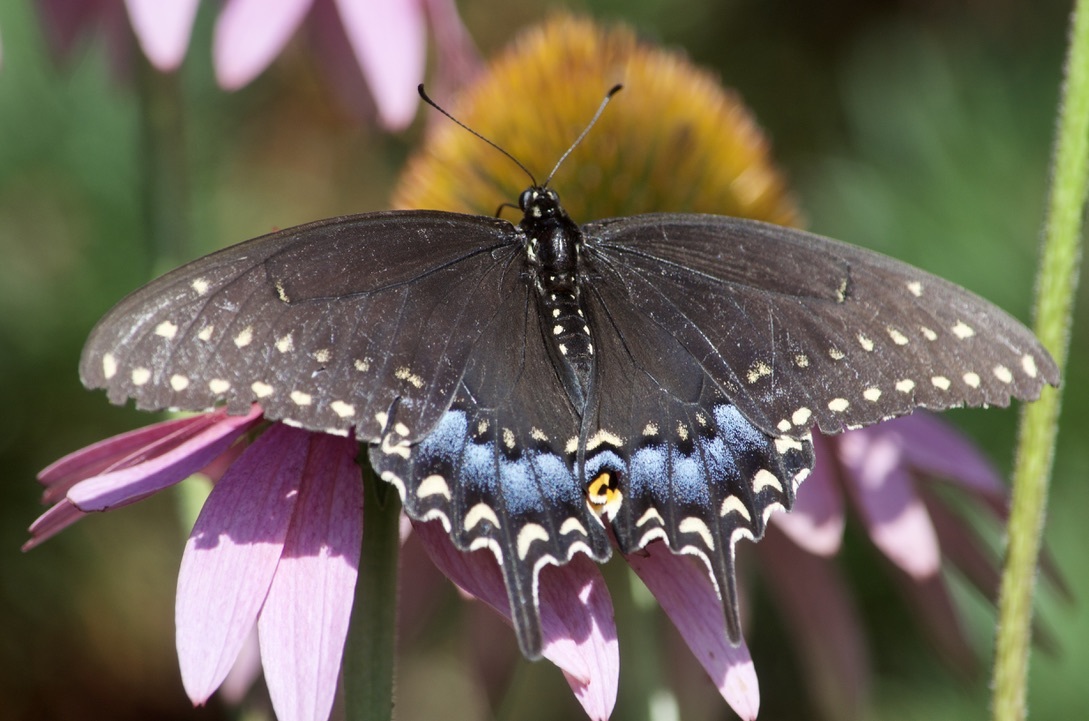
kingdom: Animalia
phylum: Arthropoda
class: Insecta
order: Lepidoptera
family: Papilionidae
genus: Papilio
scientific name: Papilio polyxenes
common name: Black swallowtail
